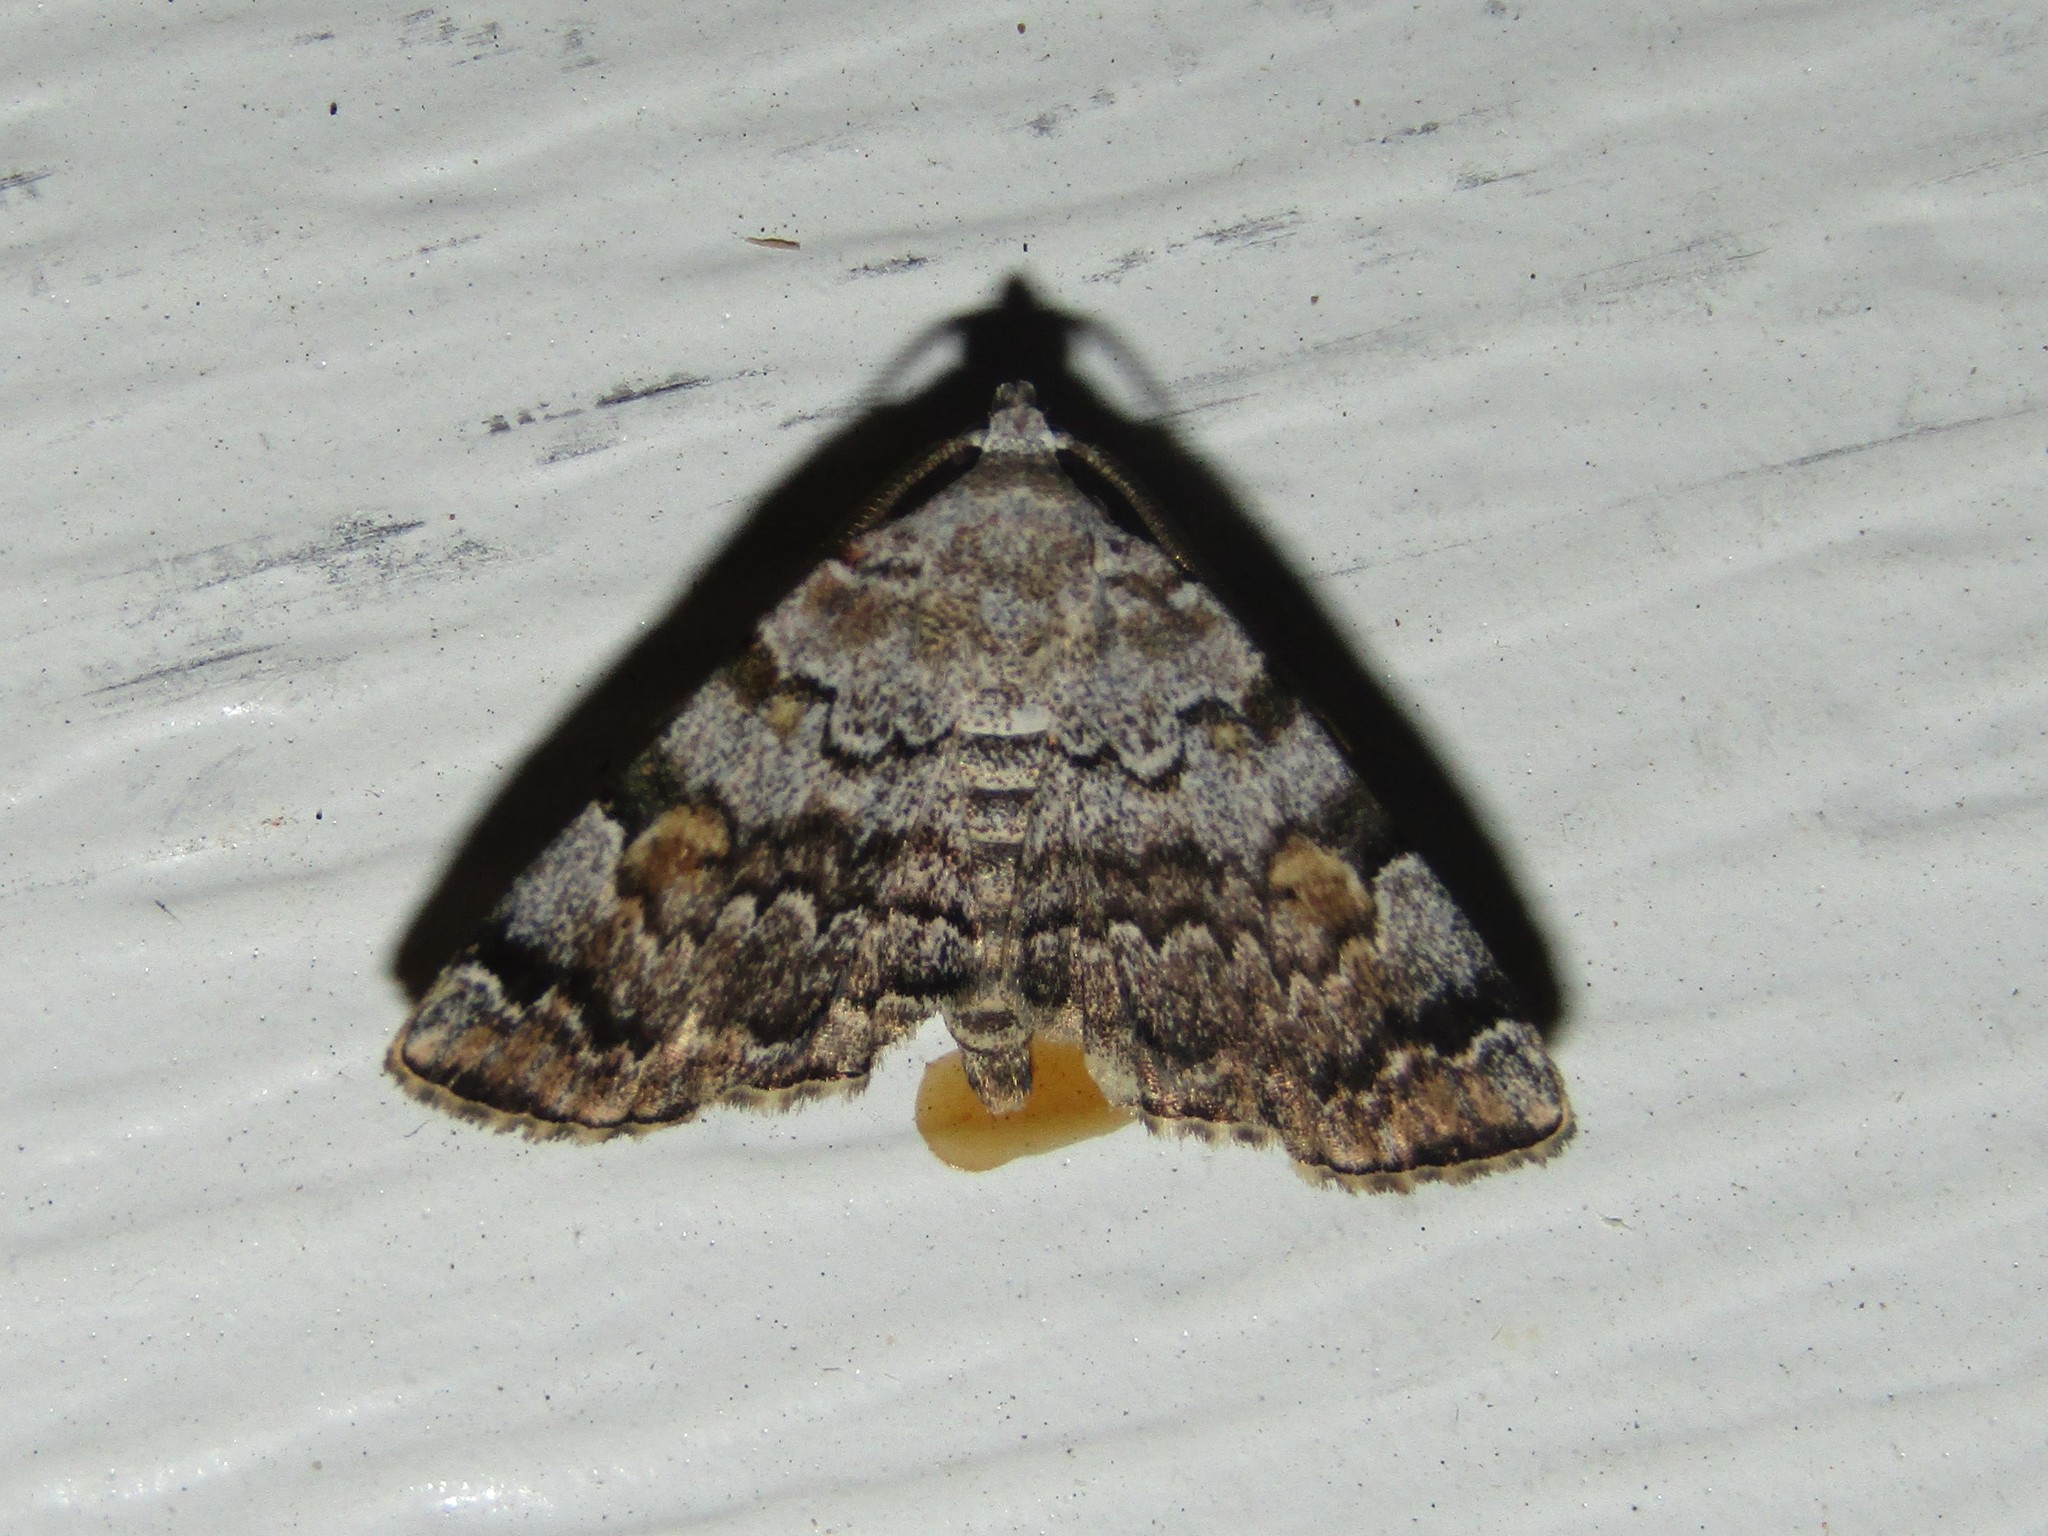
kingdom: Animalia
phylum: Arthropoda
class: Insecta
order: Lepidoptera
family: Erebidae
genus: Idia
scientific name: Idia americalis
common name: American idia moth
